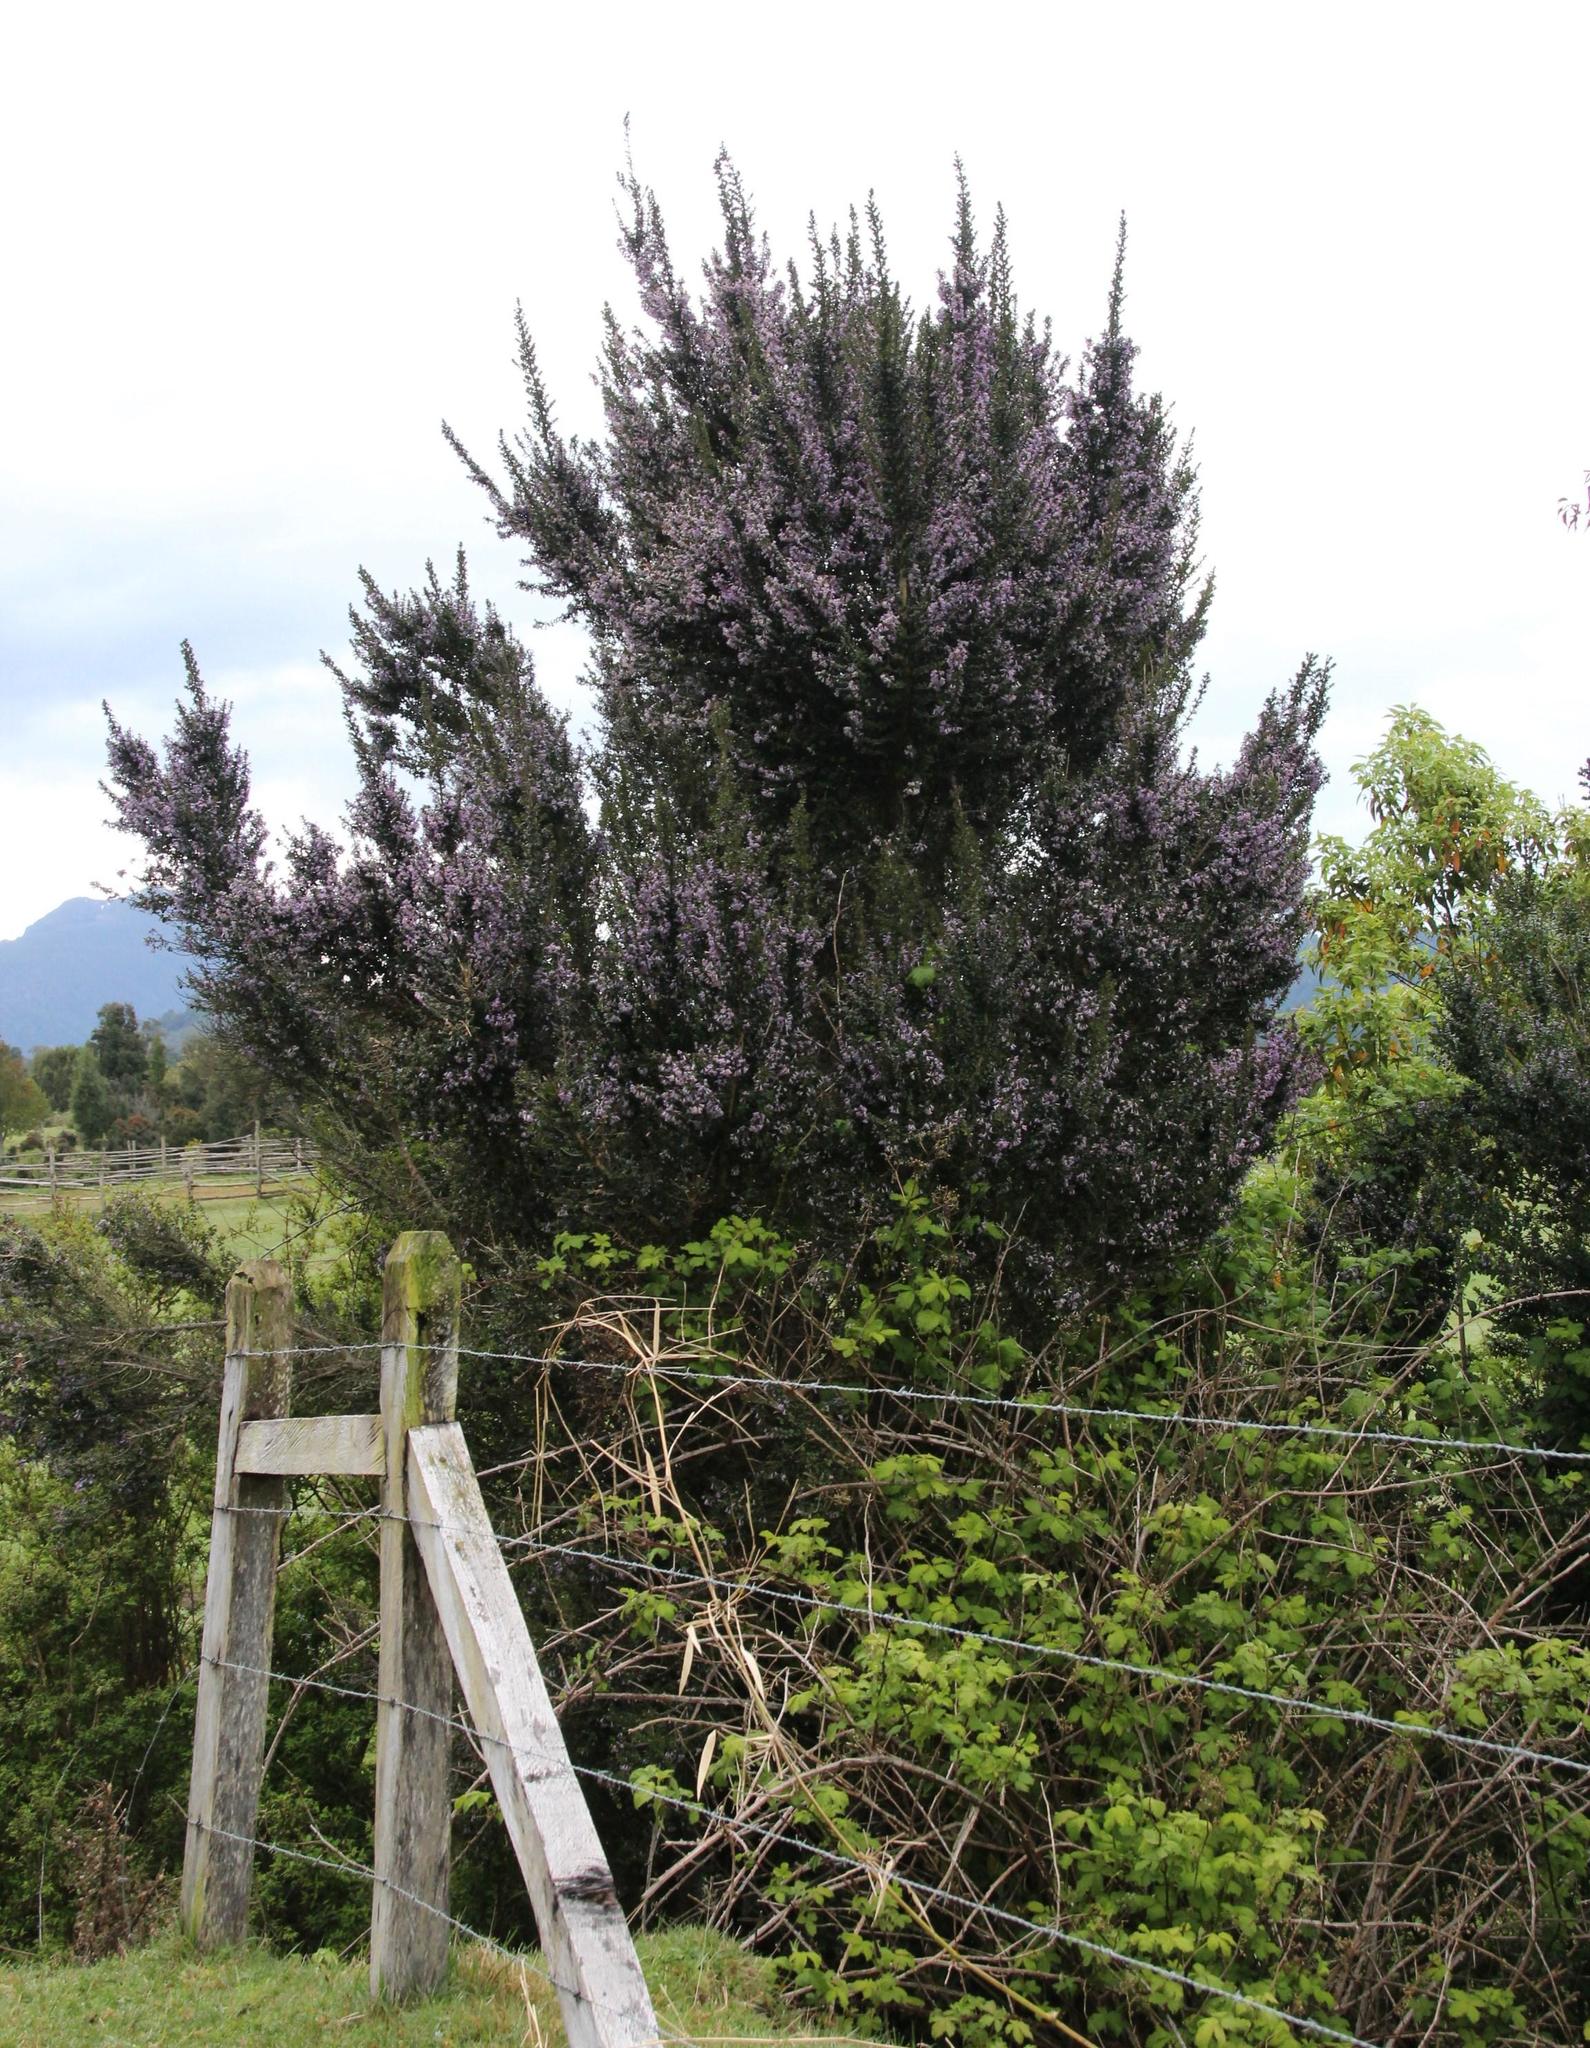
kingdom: Plantae
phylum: Tracheophyta
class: Magnoliopsida
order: Lamiales
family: Verbenaceae
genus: Rhaphithamnus
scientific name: Rhaphithamnus spinosus
